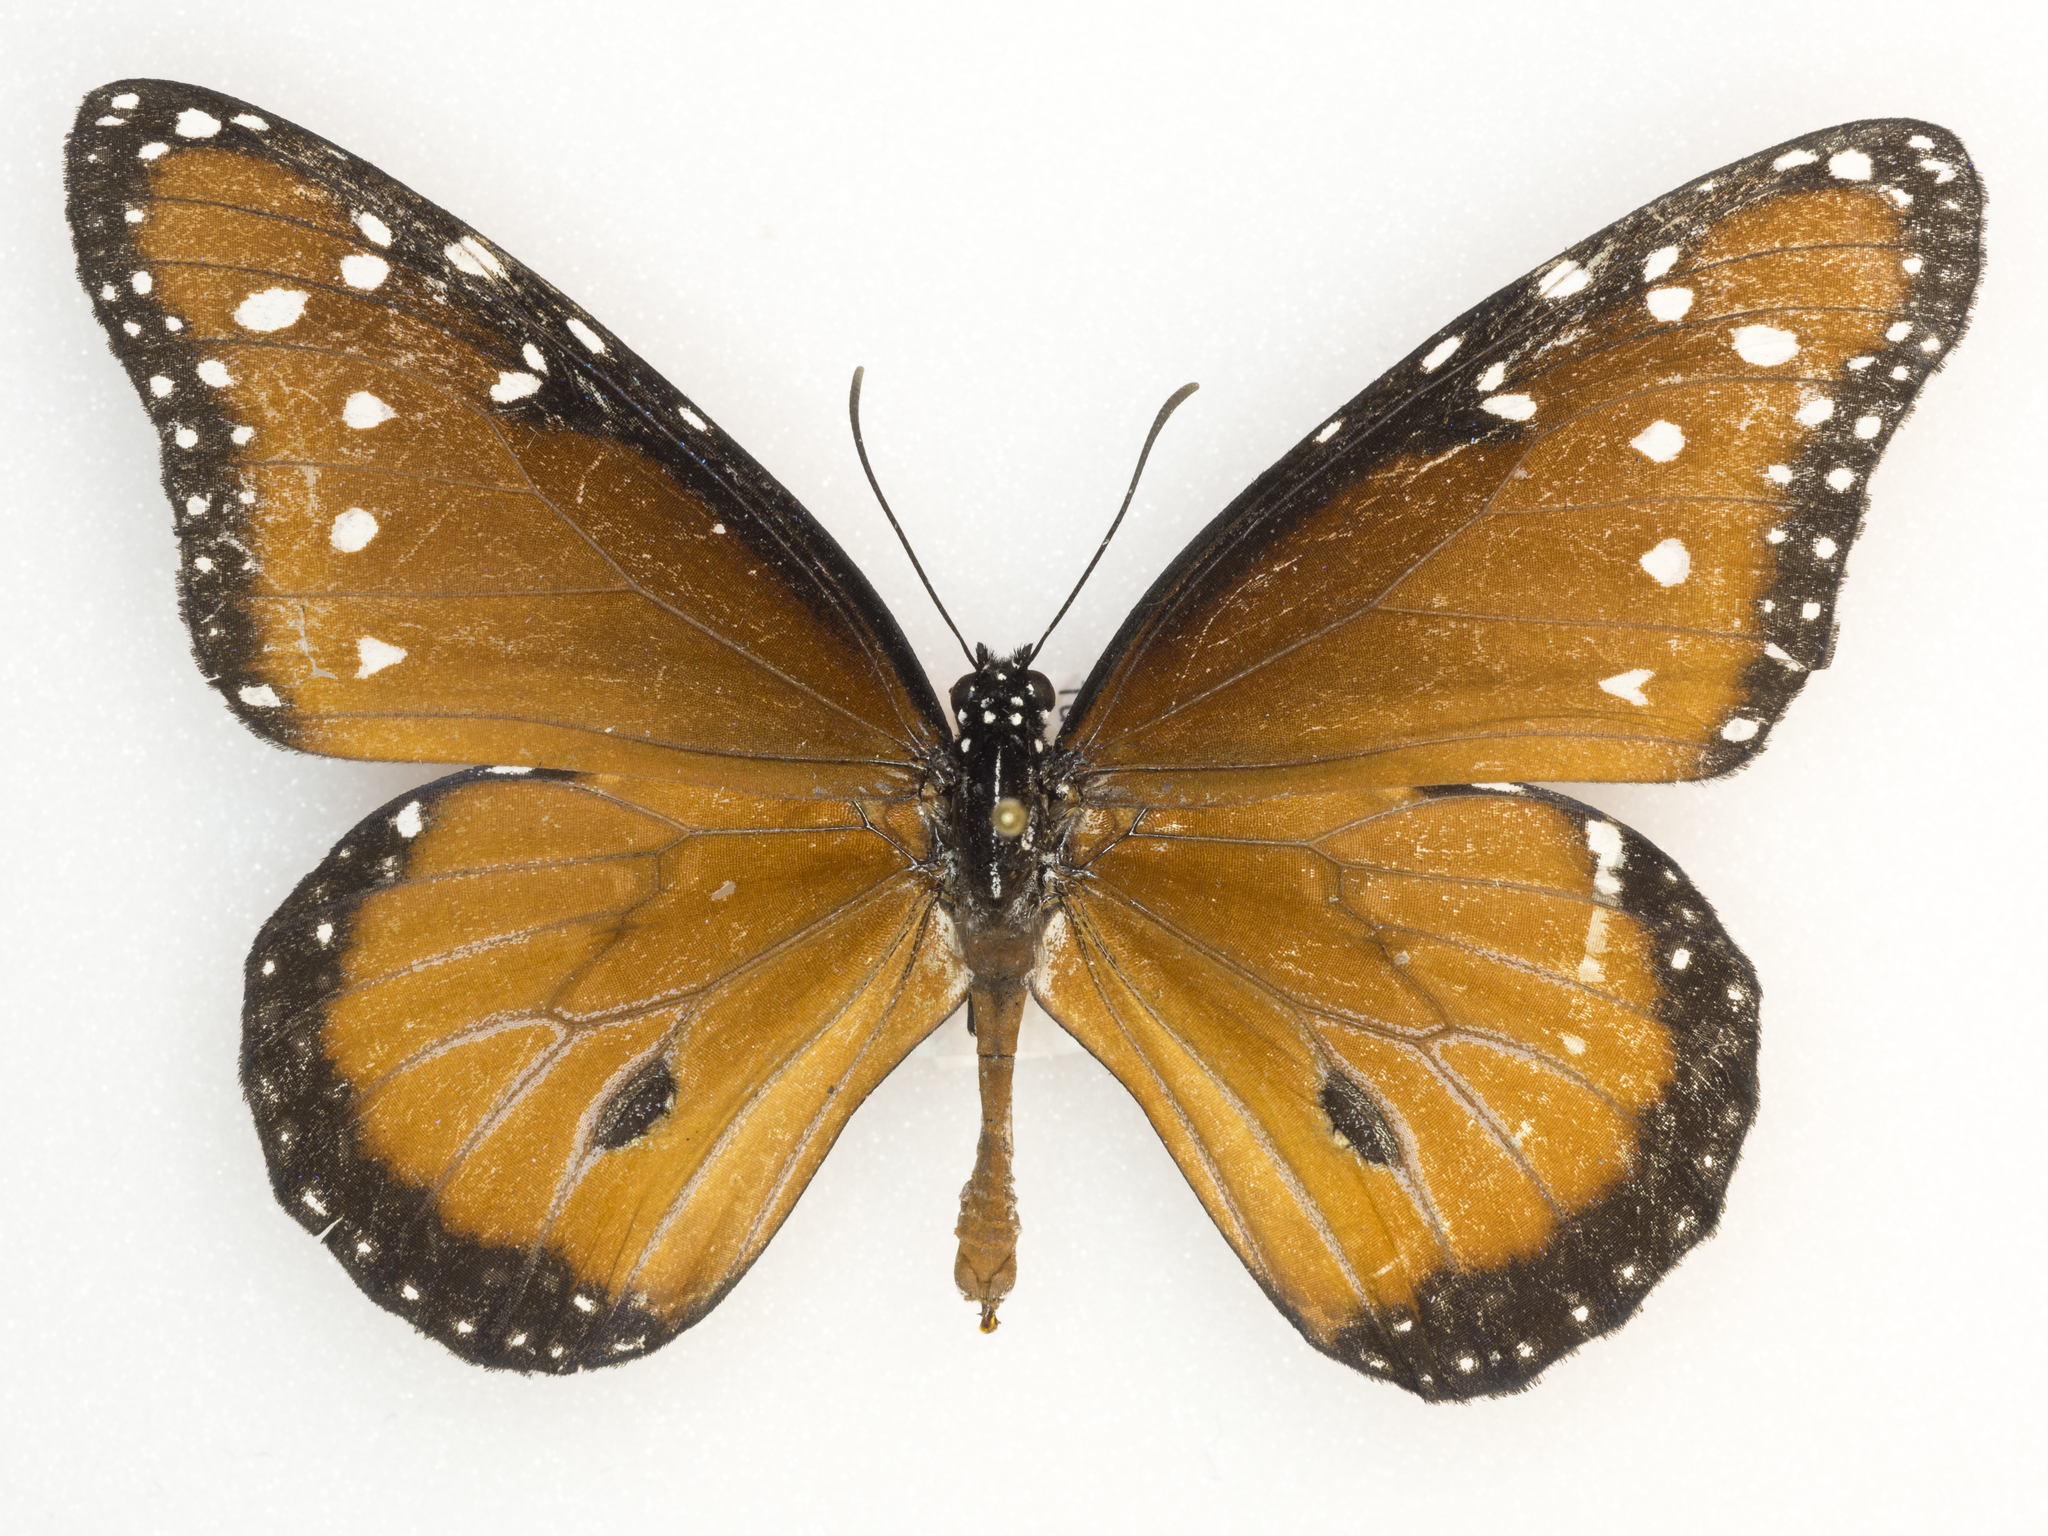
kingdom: Animalia
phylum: Arthropoda
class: Insecta
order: Lepidoptera
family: Nymphalidae
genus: Danaus
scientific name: Danaus gilippus
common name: Queen
